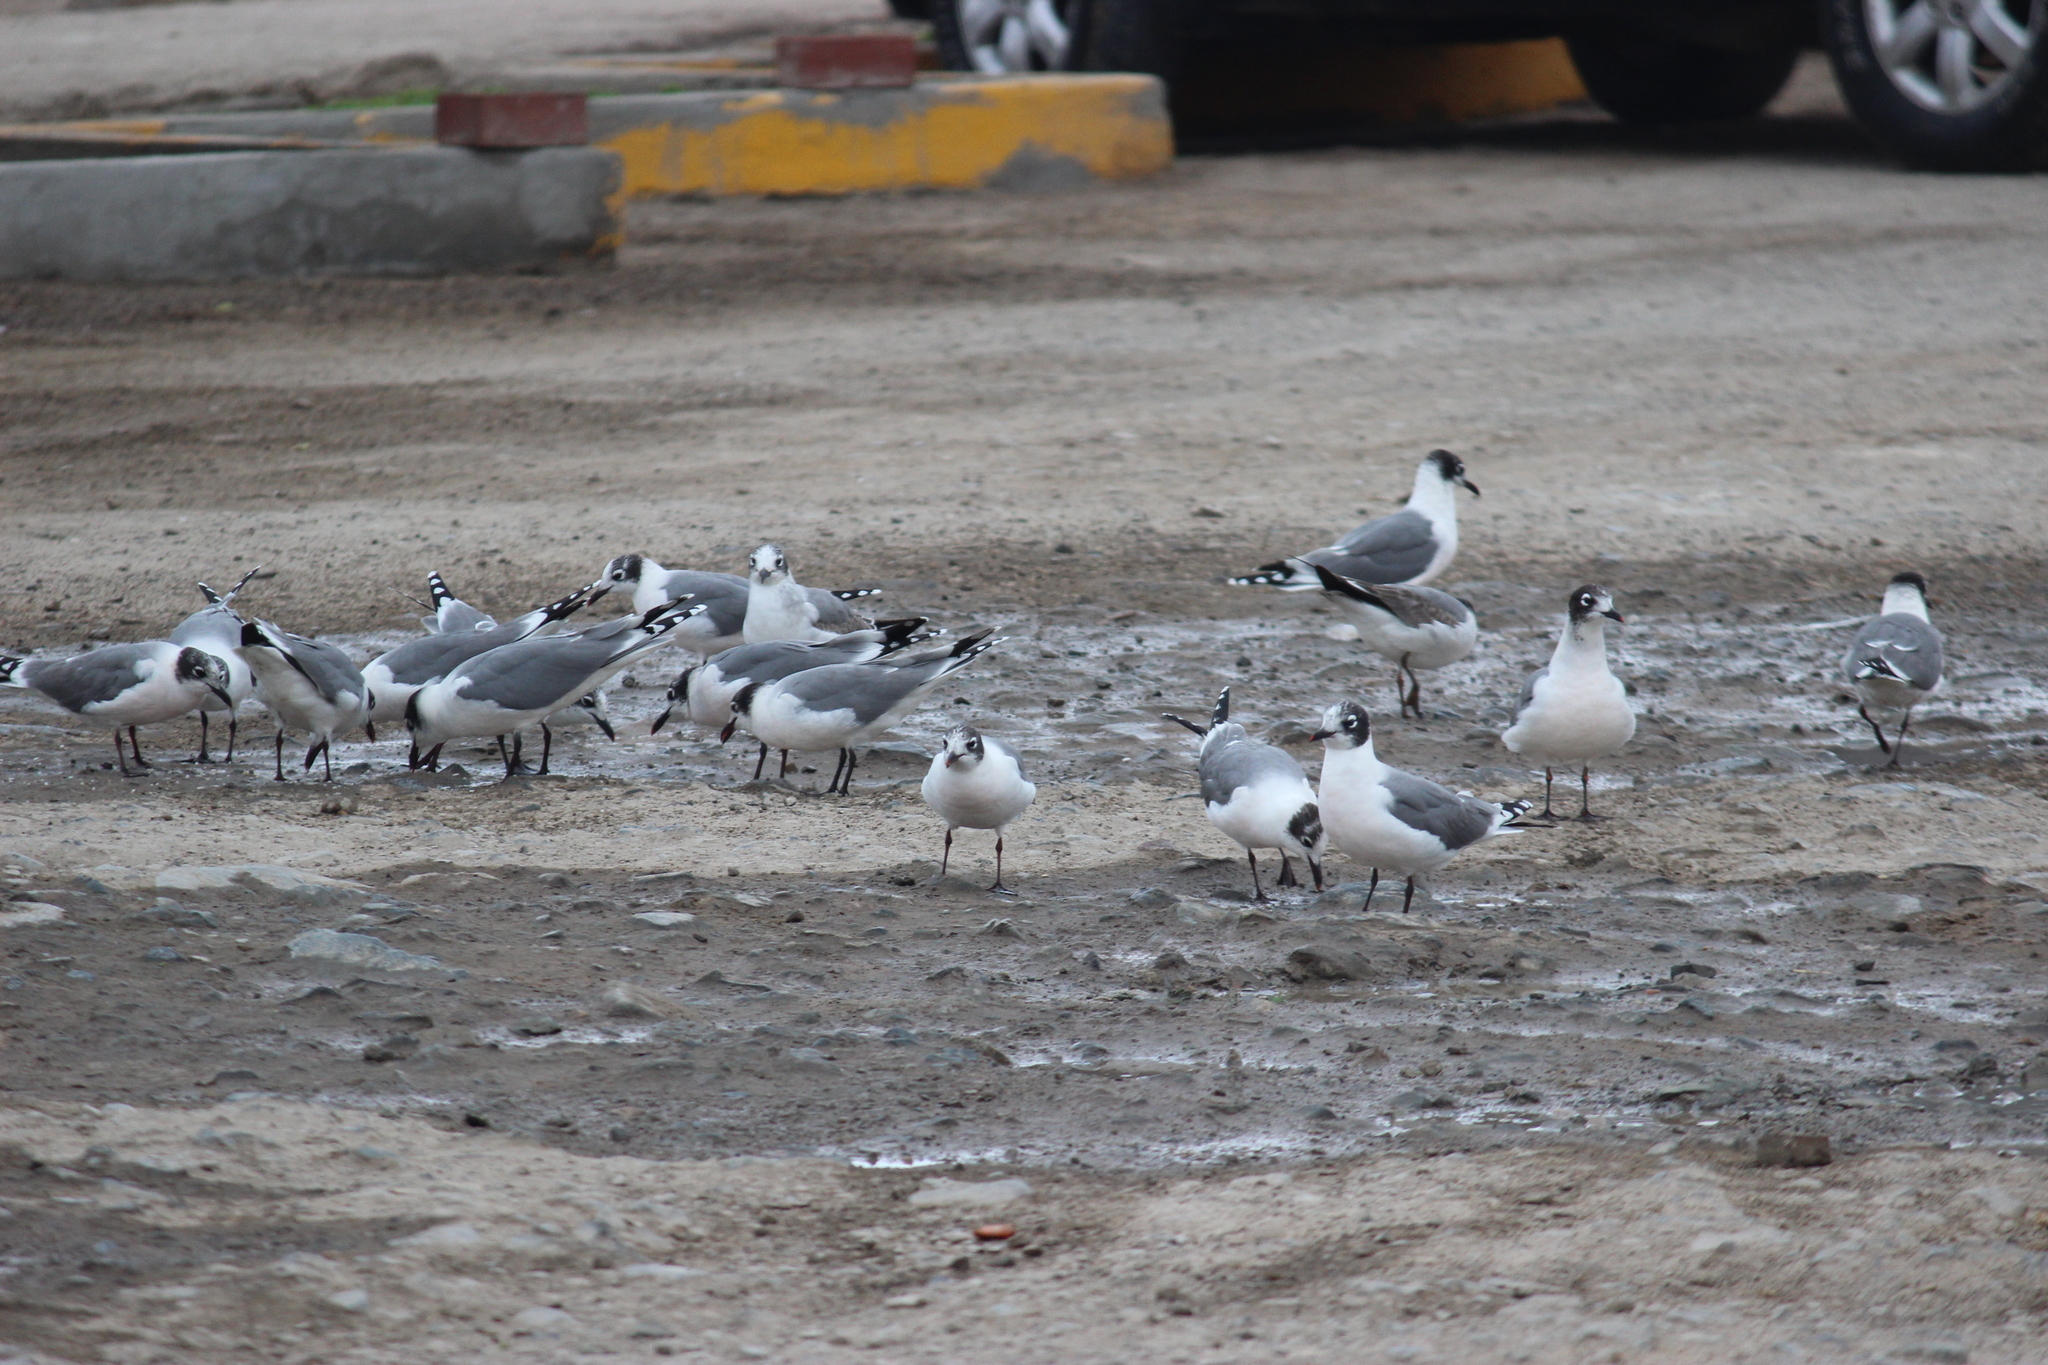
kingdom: Animalia
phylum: Chordata
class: Aves
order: Charadriiformes
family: Laridae
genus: Leucophaeus
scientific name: Leucophaeus pipixcan
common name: Franklin's gull
